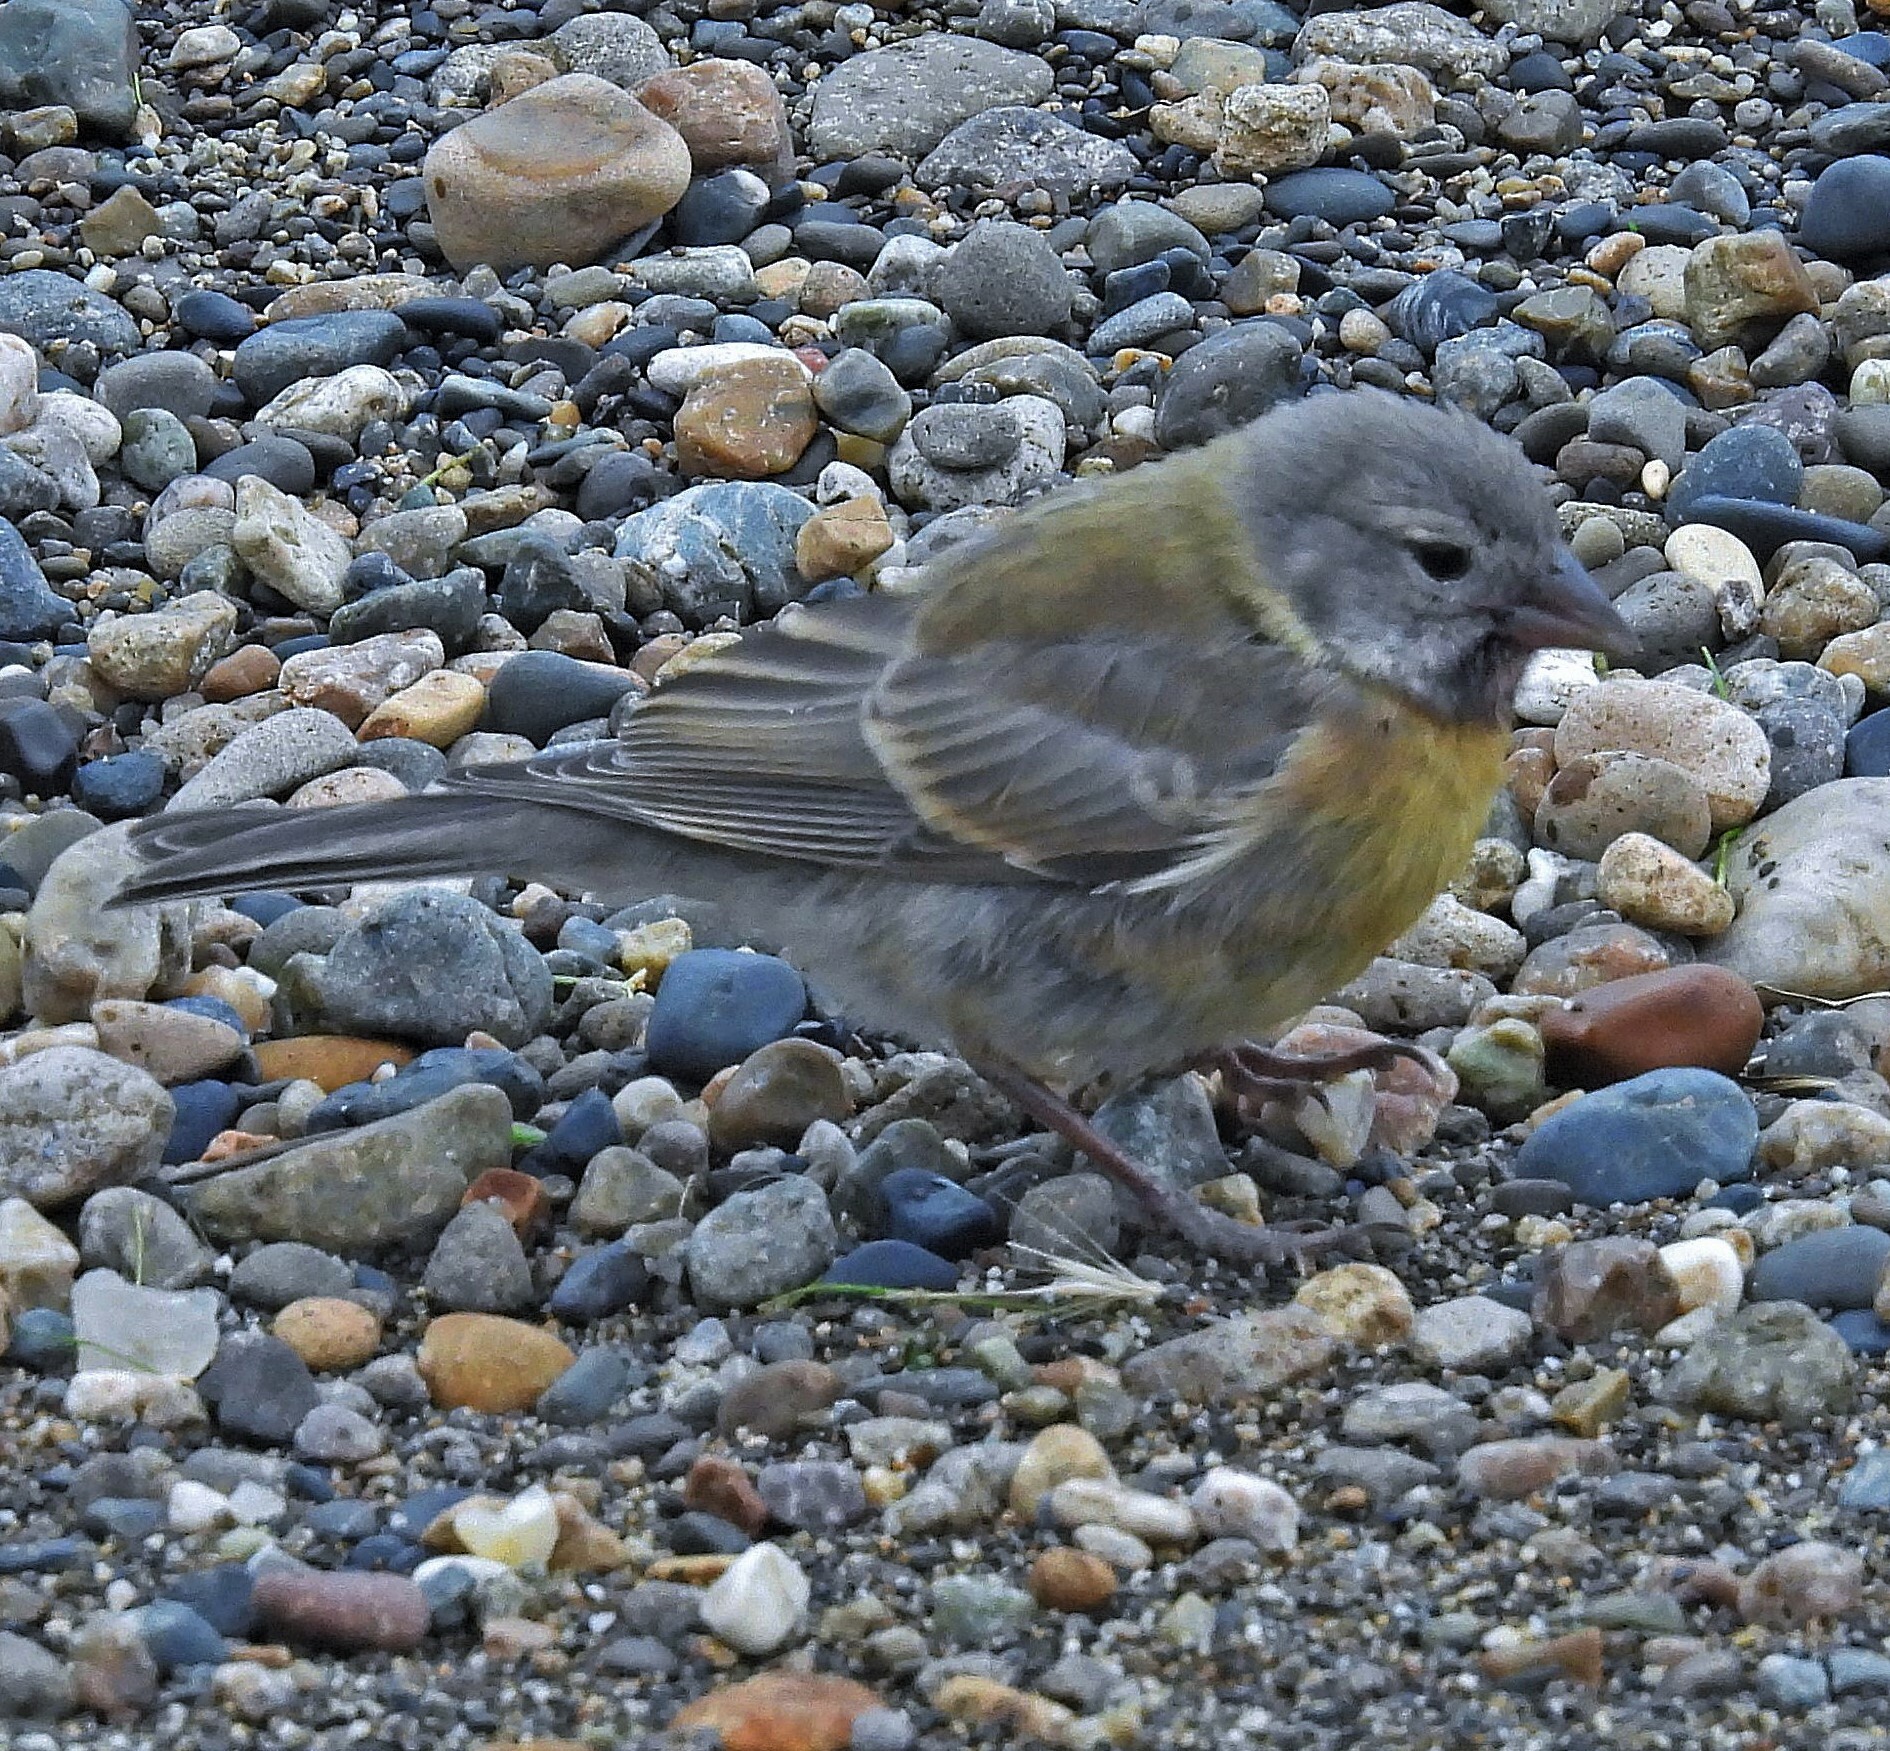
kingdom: Animalia
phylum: Chordata
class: Aves
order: Passeriformes
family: Thraupidae
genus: Phrygilus
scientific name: Phrygilus gayi
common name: Grey-hooded sierra finch
